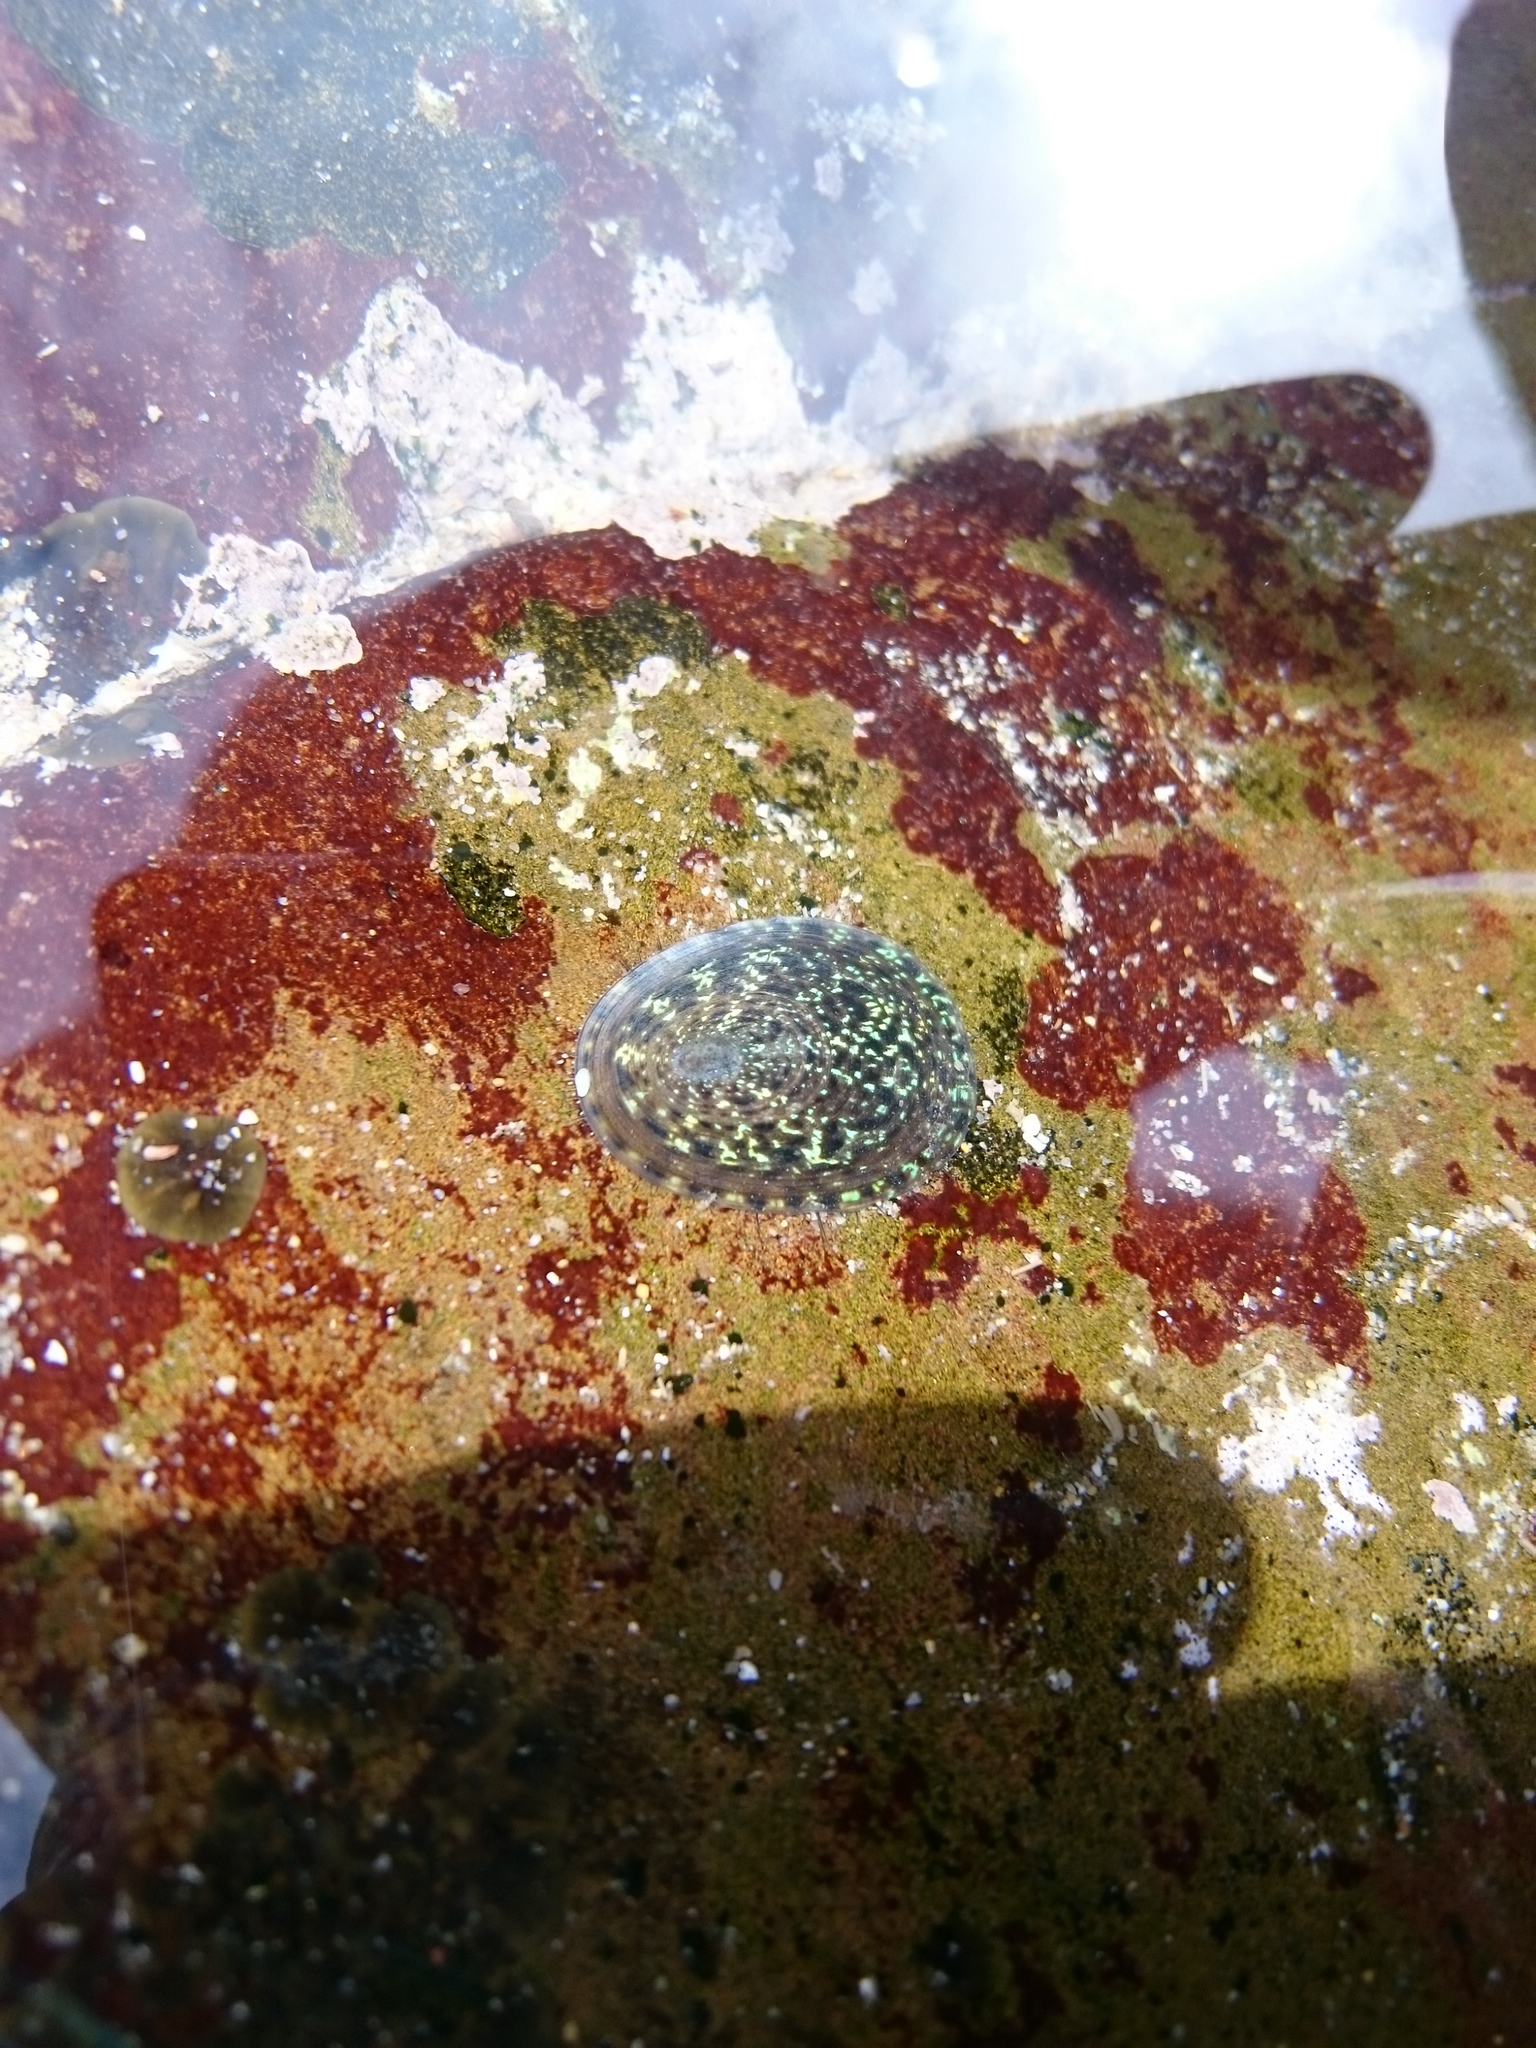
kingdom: Animalia
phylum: Mollusca
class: Gastropoda
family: Patellidae
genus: Helcion
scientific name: Helcion pruinosus
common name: Rayed limpet
